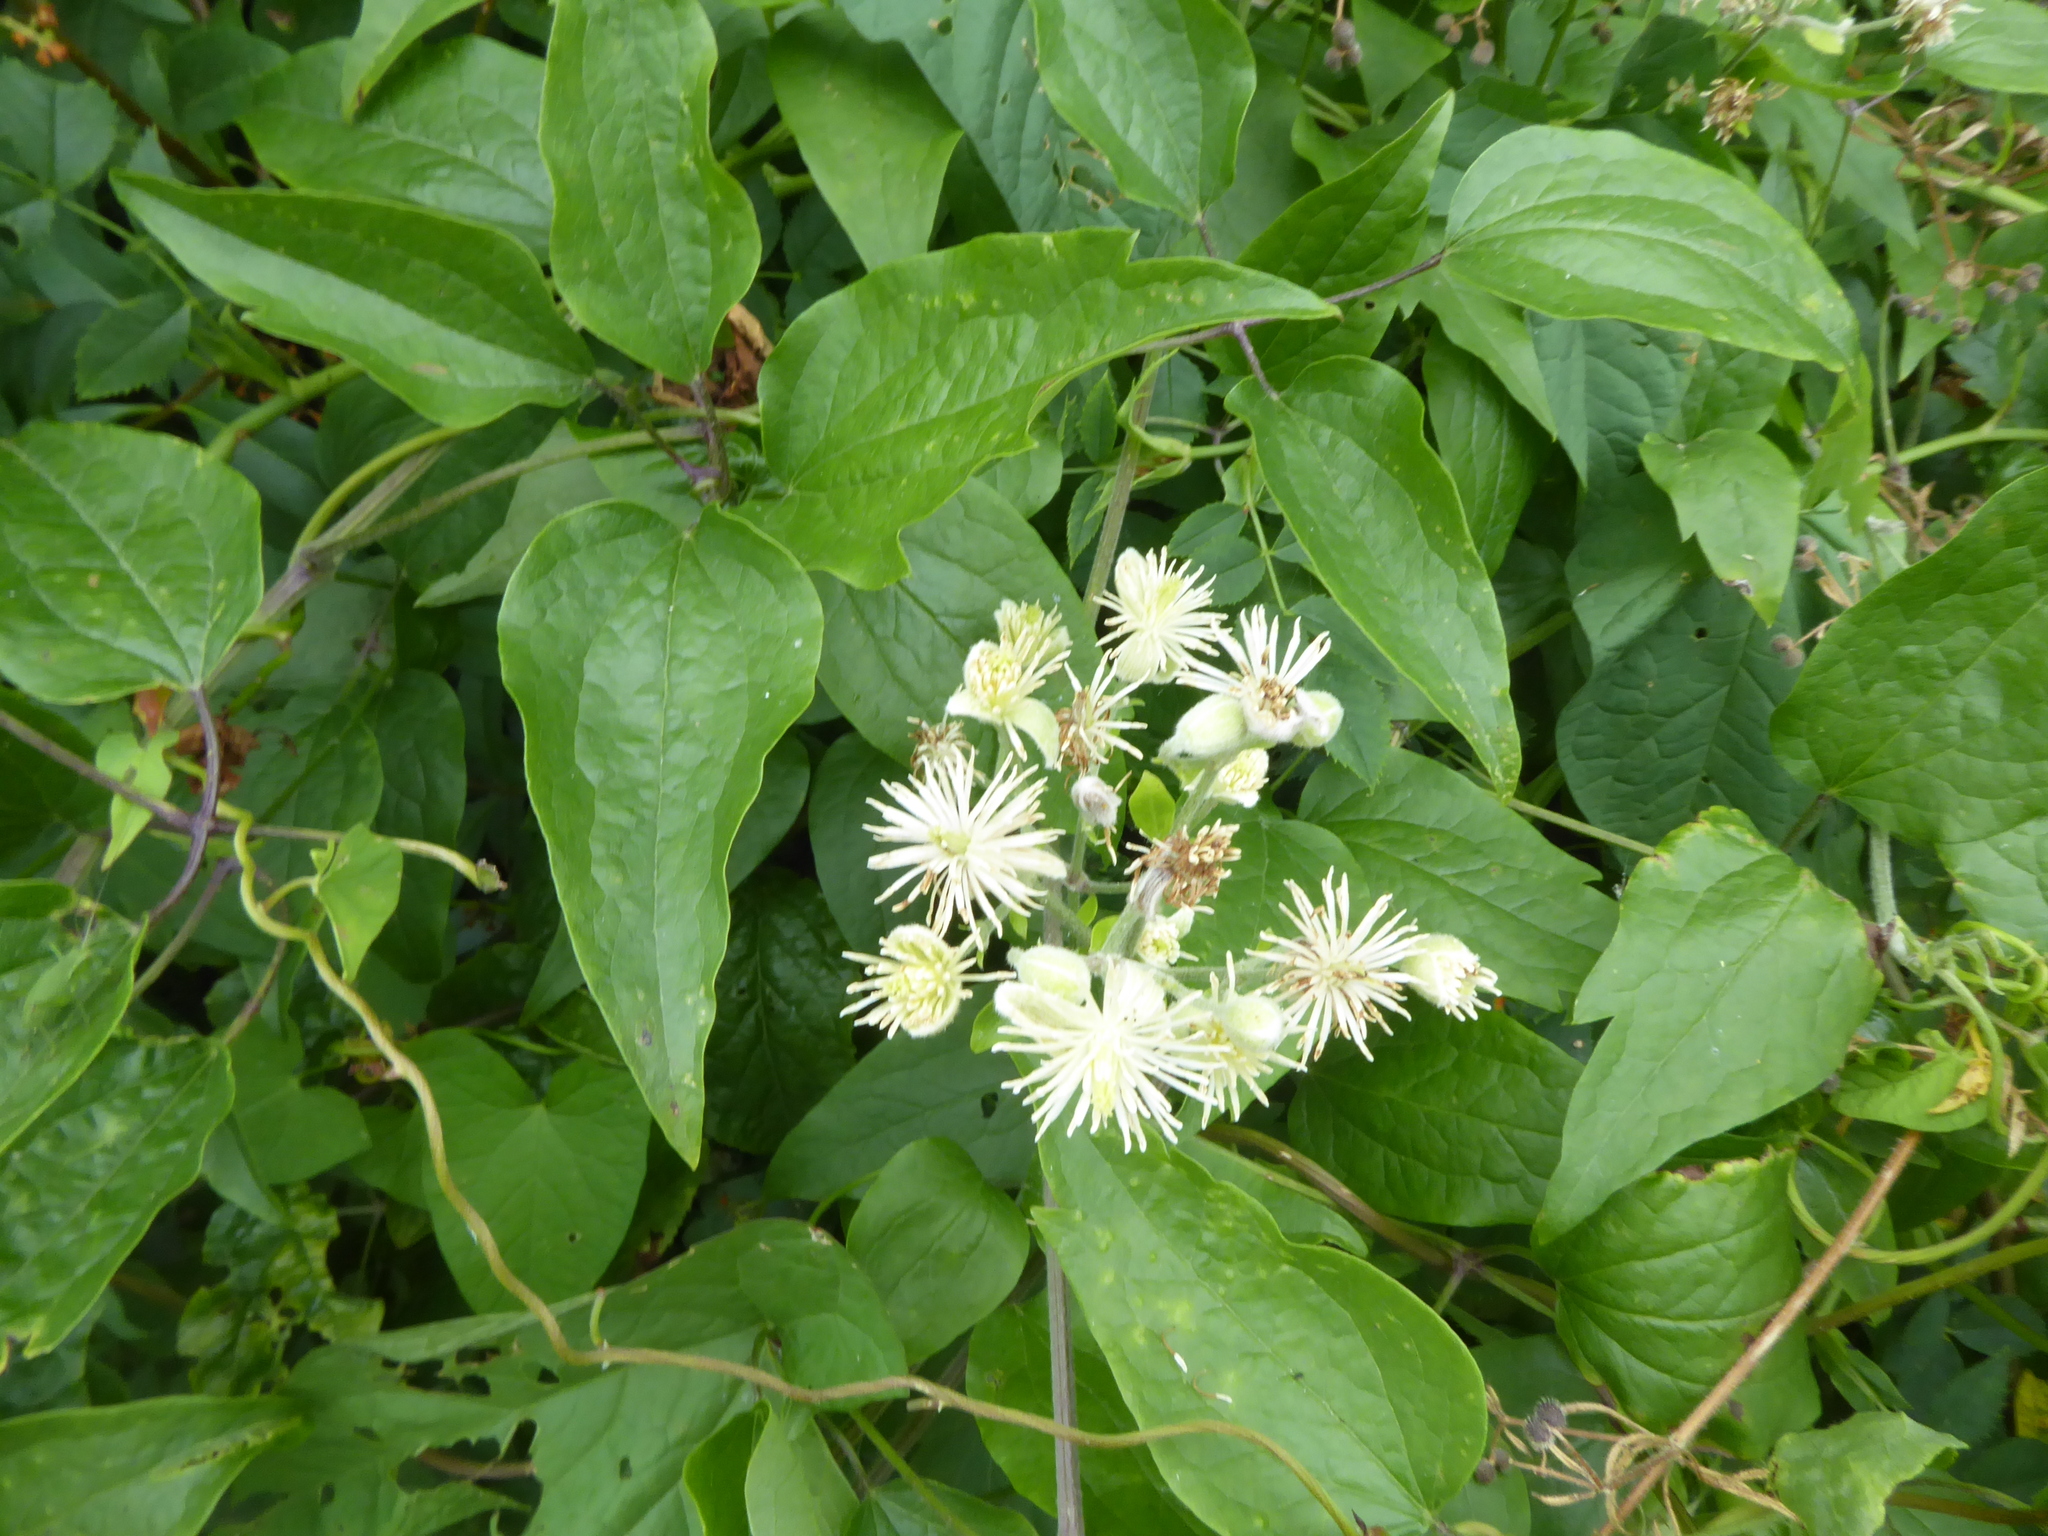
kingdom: Plantae
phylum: Tracheophyta
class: Magnoliopsida
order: Ranunculales
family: Ranunculaceae
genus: Clematis
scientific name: Clematis vitalba
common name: Evergreen clematis
